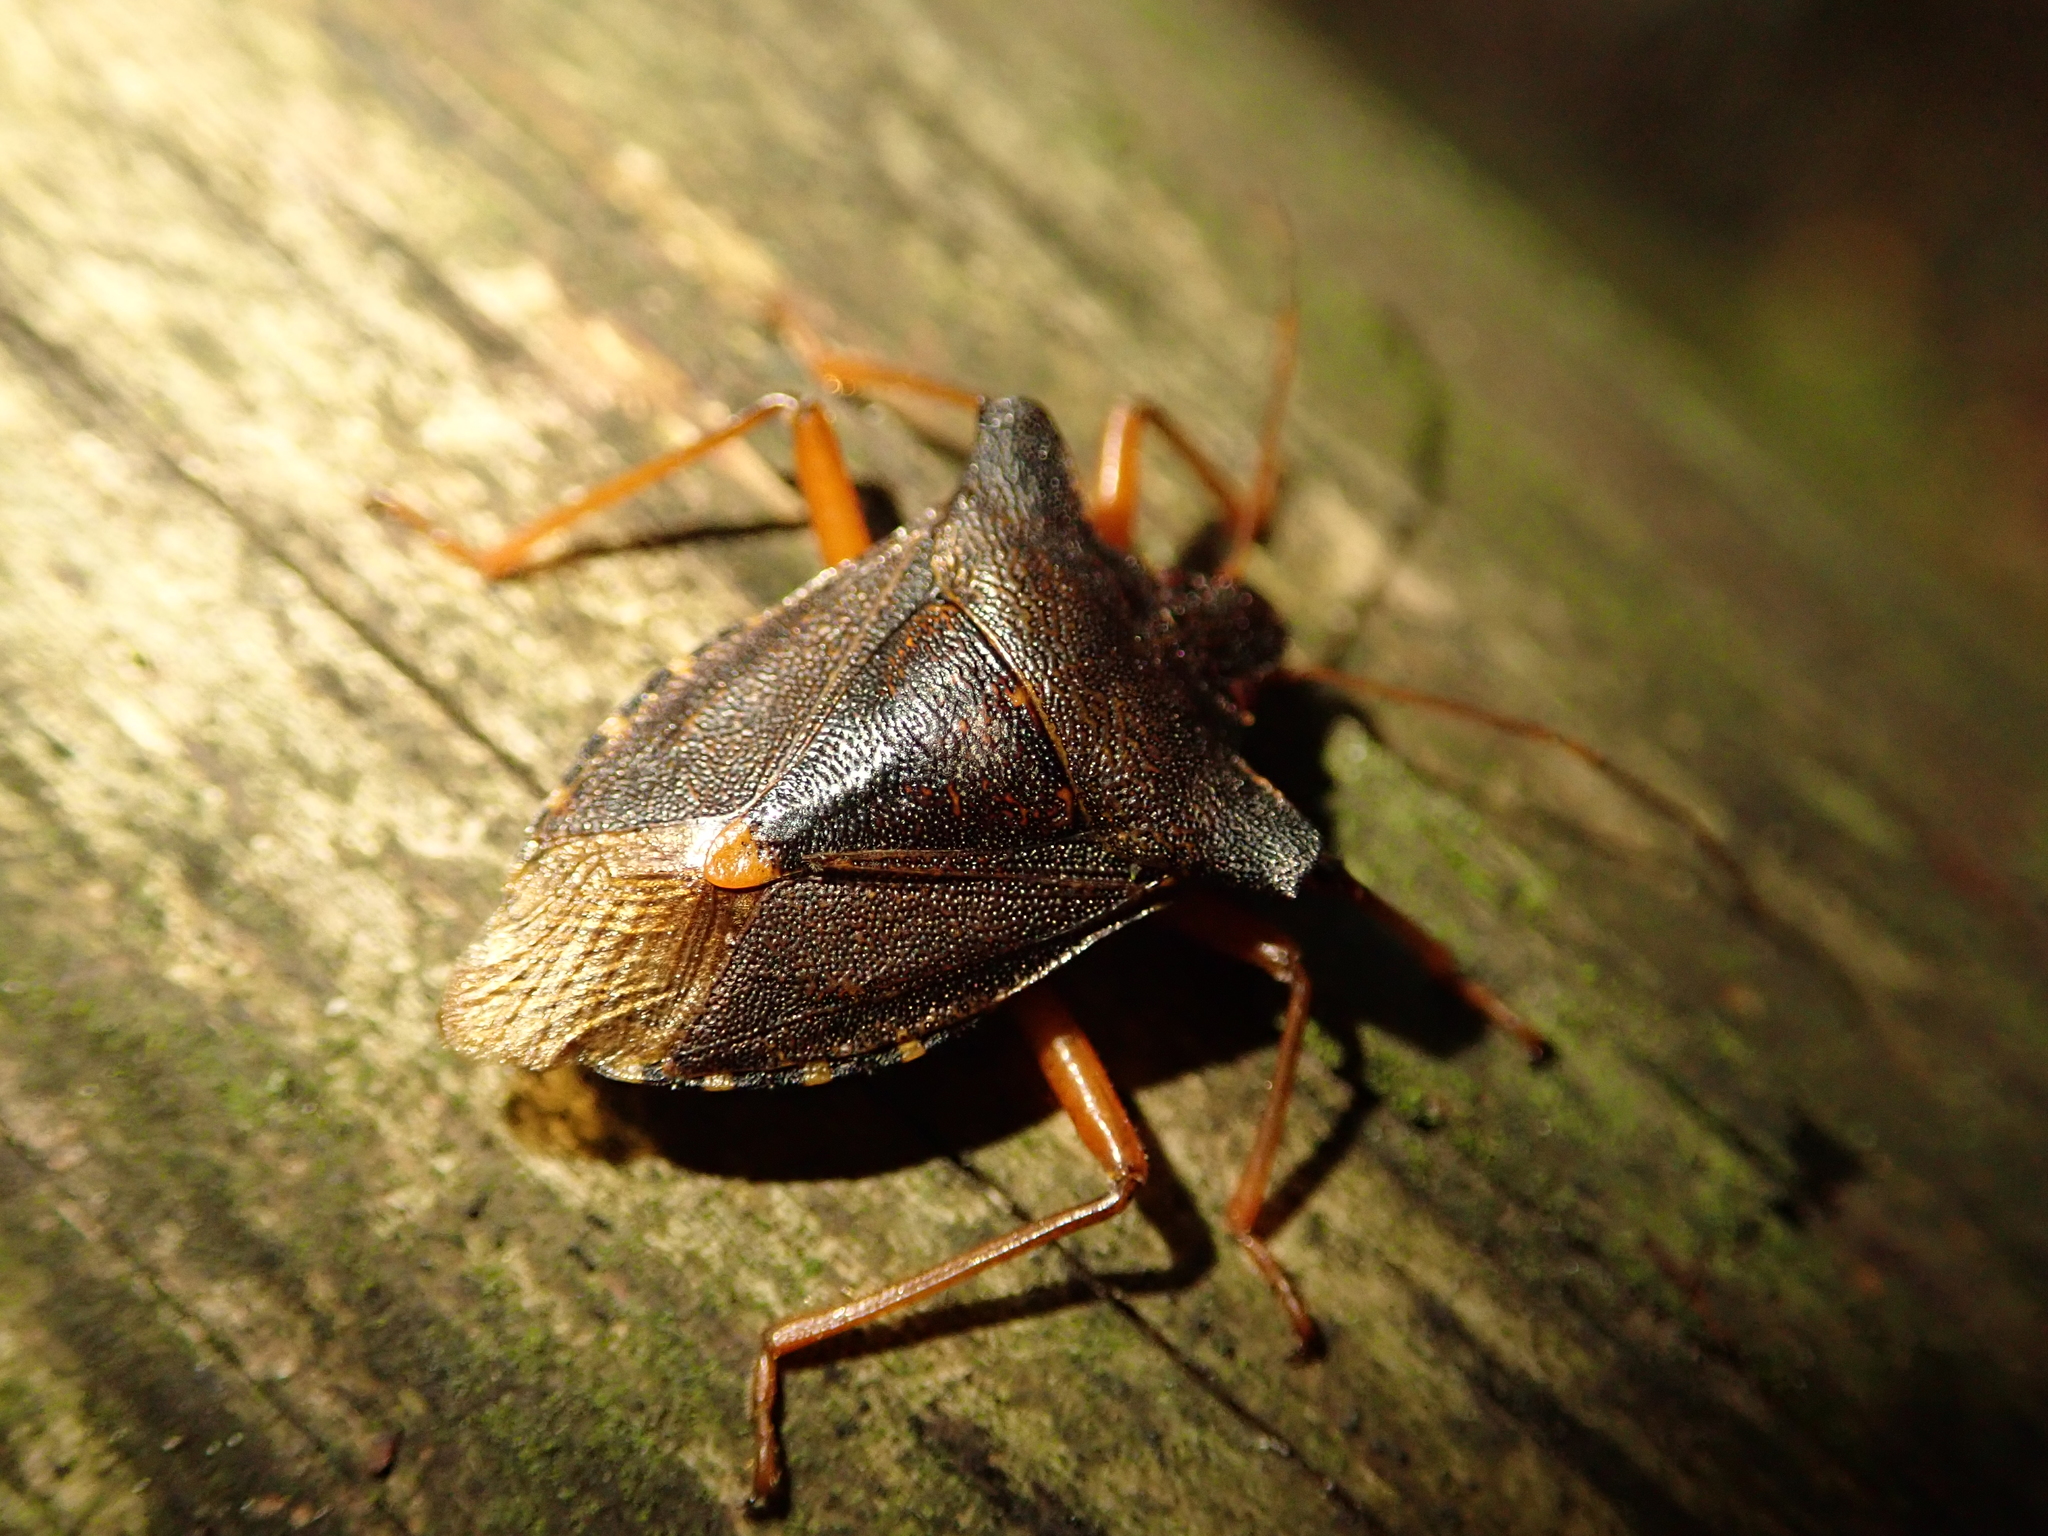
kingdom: Animalia
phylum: Arthropoda
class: Insecta
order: Hemiptera
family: Pentatomidae
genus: Pentatoma
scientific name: Pentatoma rufipes
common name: Forest bug
